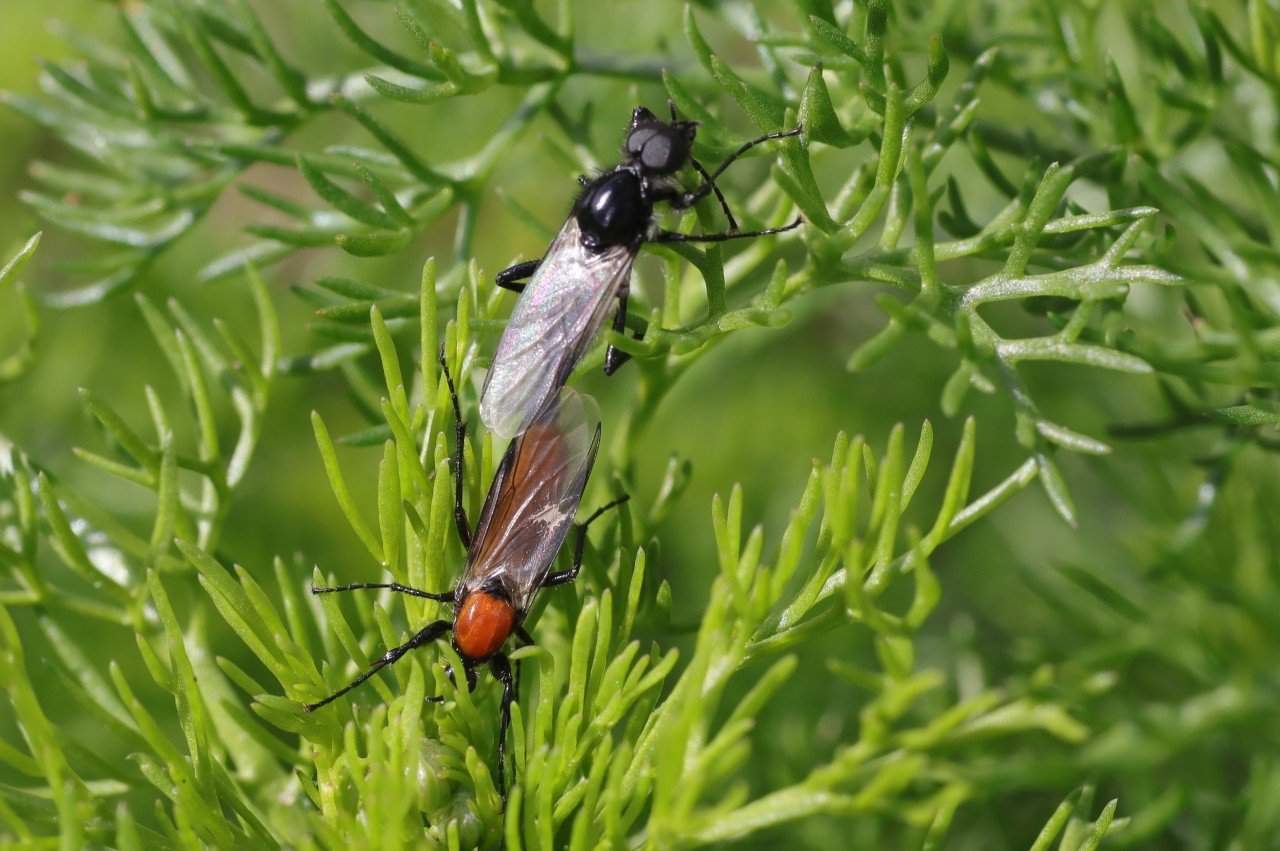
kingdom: Animalia
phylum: Arthropoda
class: Insecta
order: Diptera
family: Bibionidae
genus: Bibio
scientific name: Bibio hortulanus
